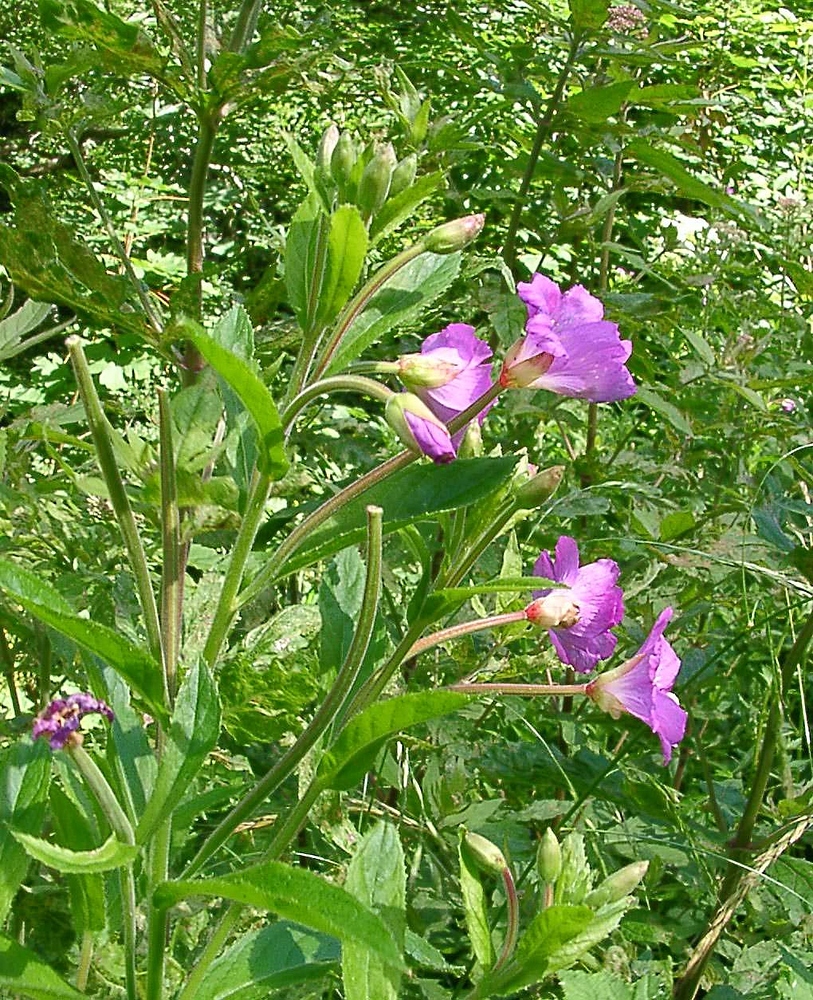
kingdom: Plantae
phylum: Tracheophyta
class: Magnoliopsida
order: Myrtales
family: Onagraceae
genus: Epilobium
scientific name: Epilobium hirsutum
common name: Great willowherb
